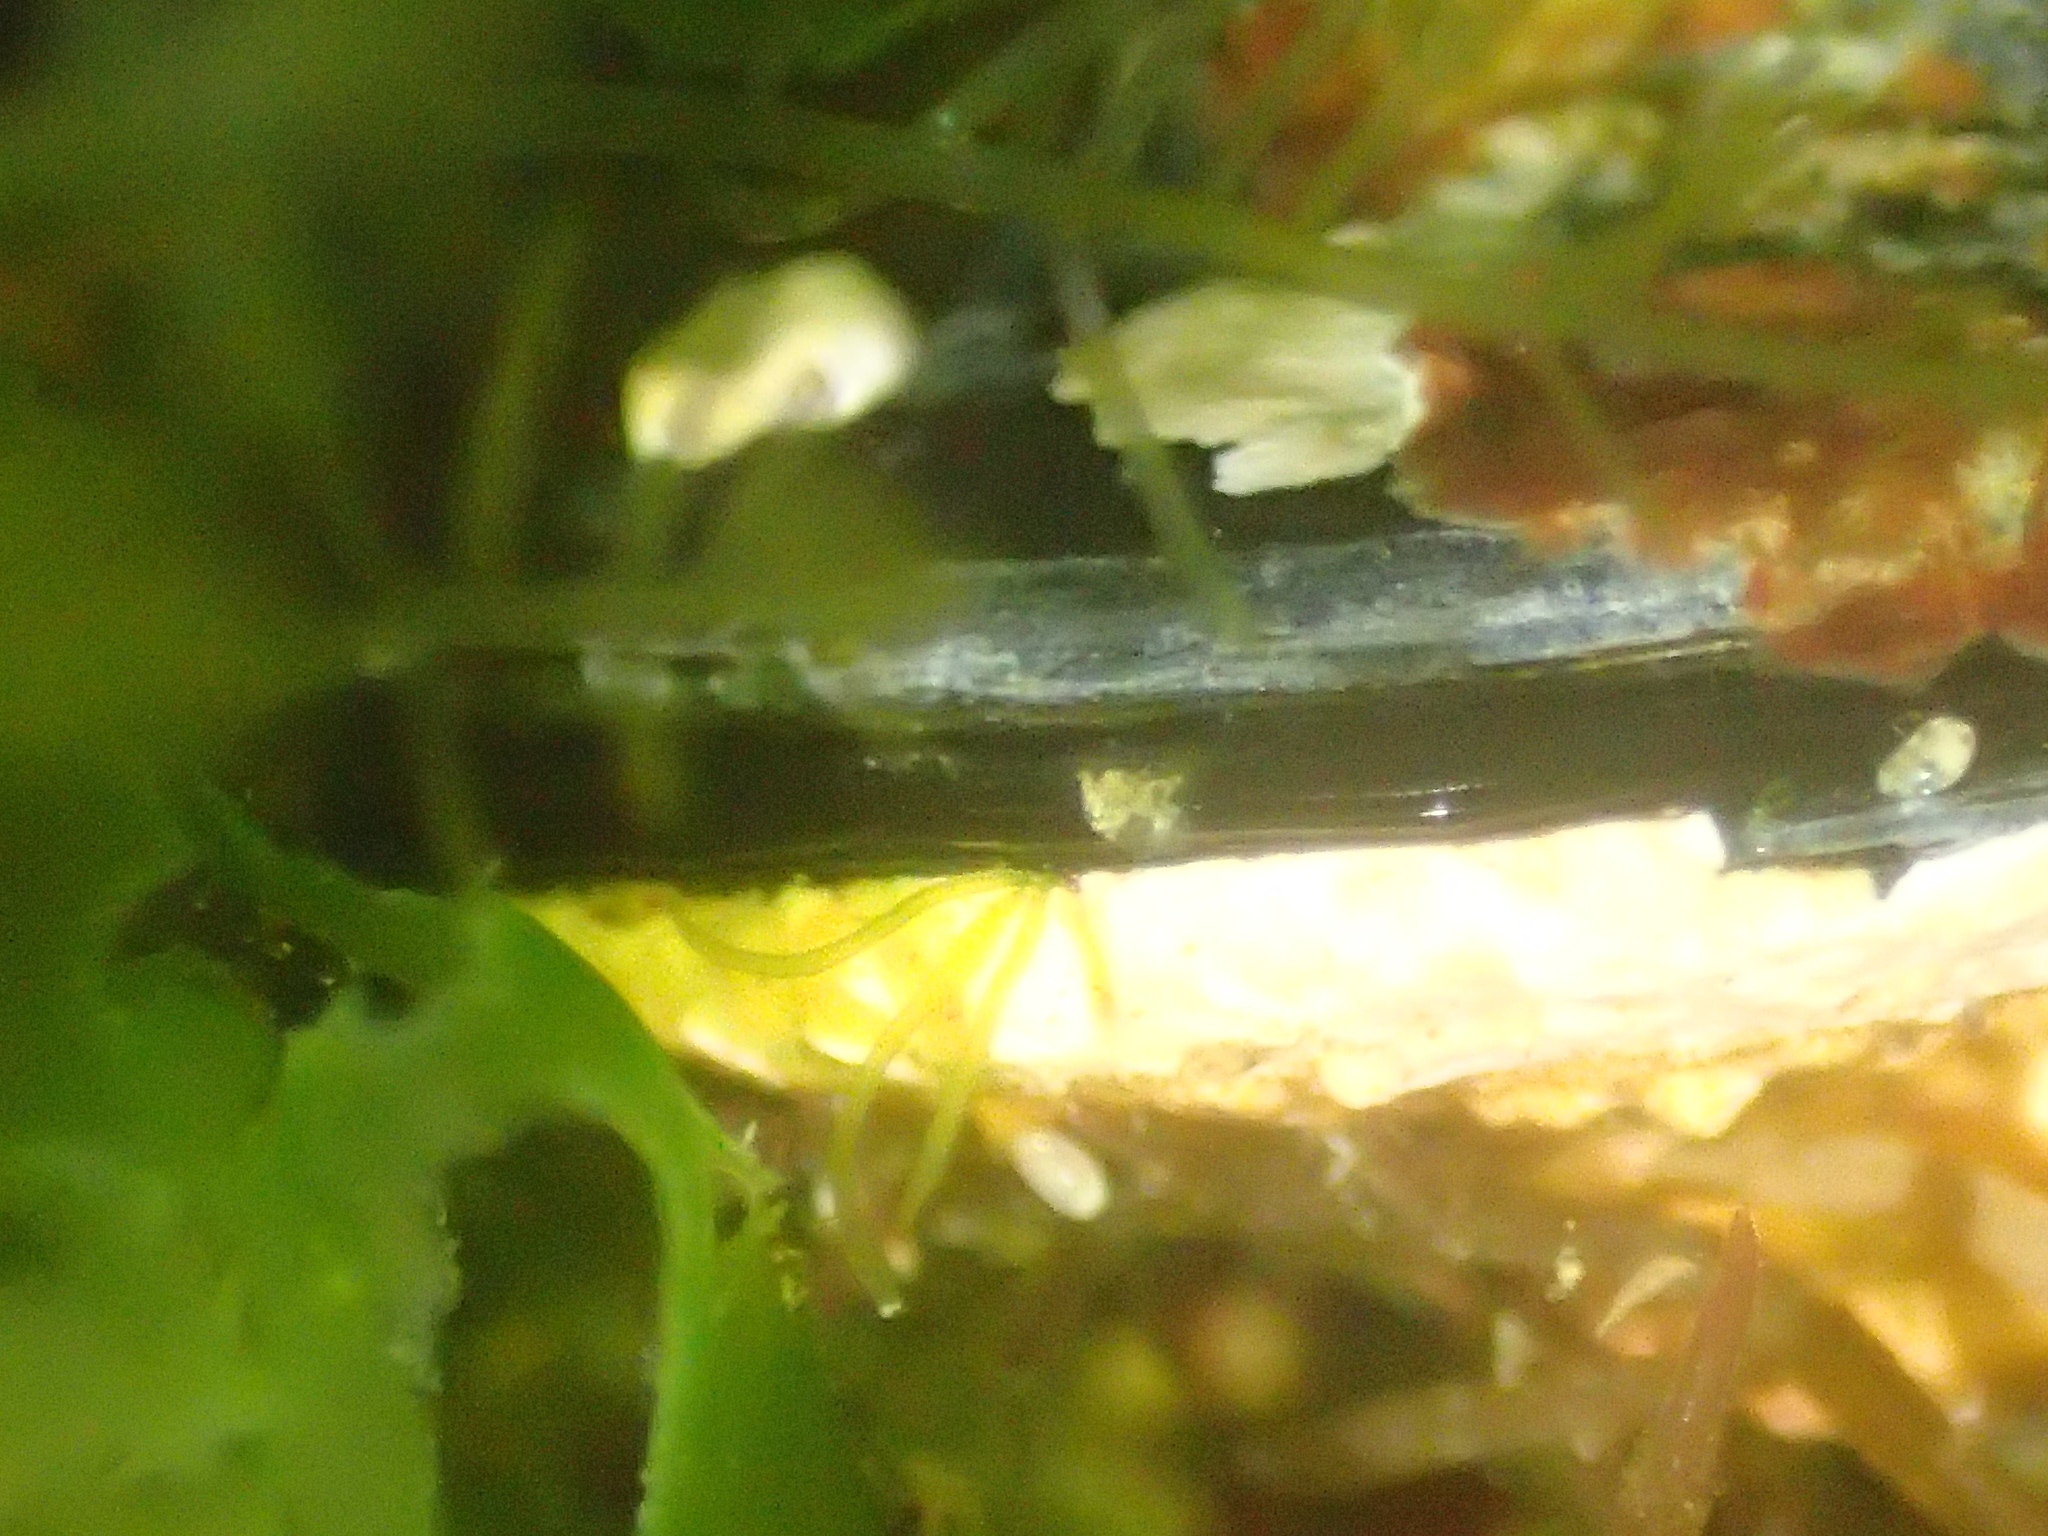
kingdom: Animalia
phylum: Mollusca
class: Bivalvia
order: Mytilida
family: Mytilidae
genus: Mytilus
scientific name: Mytilus planulatus
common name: Australian mussel
